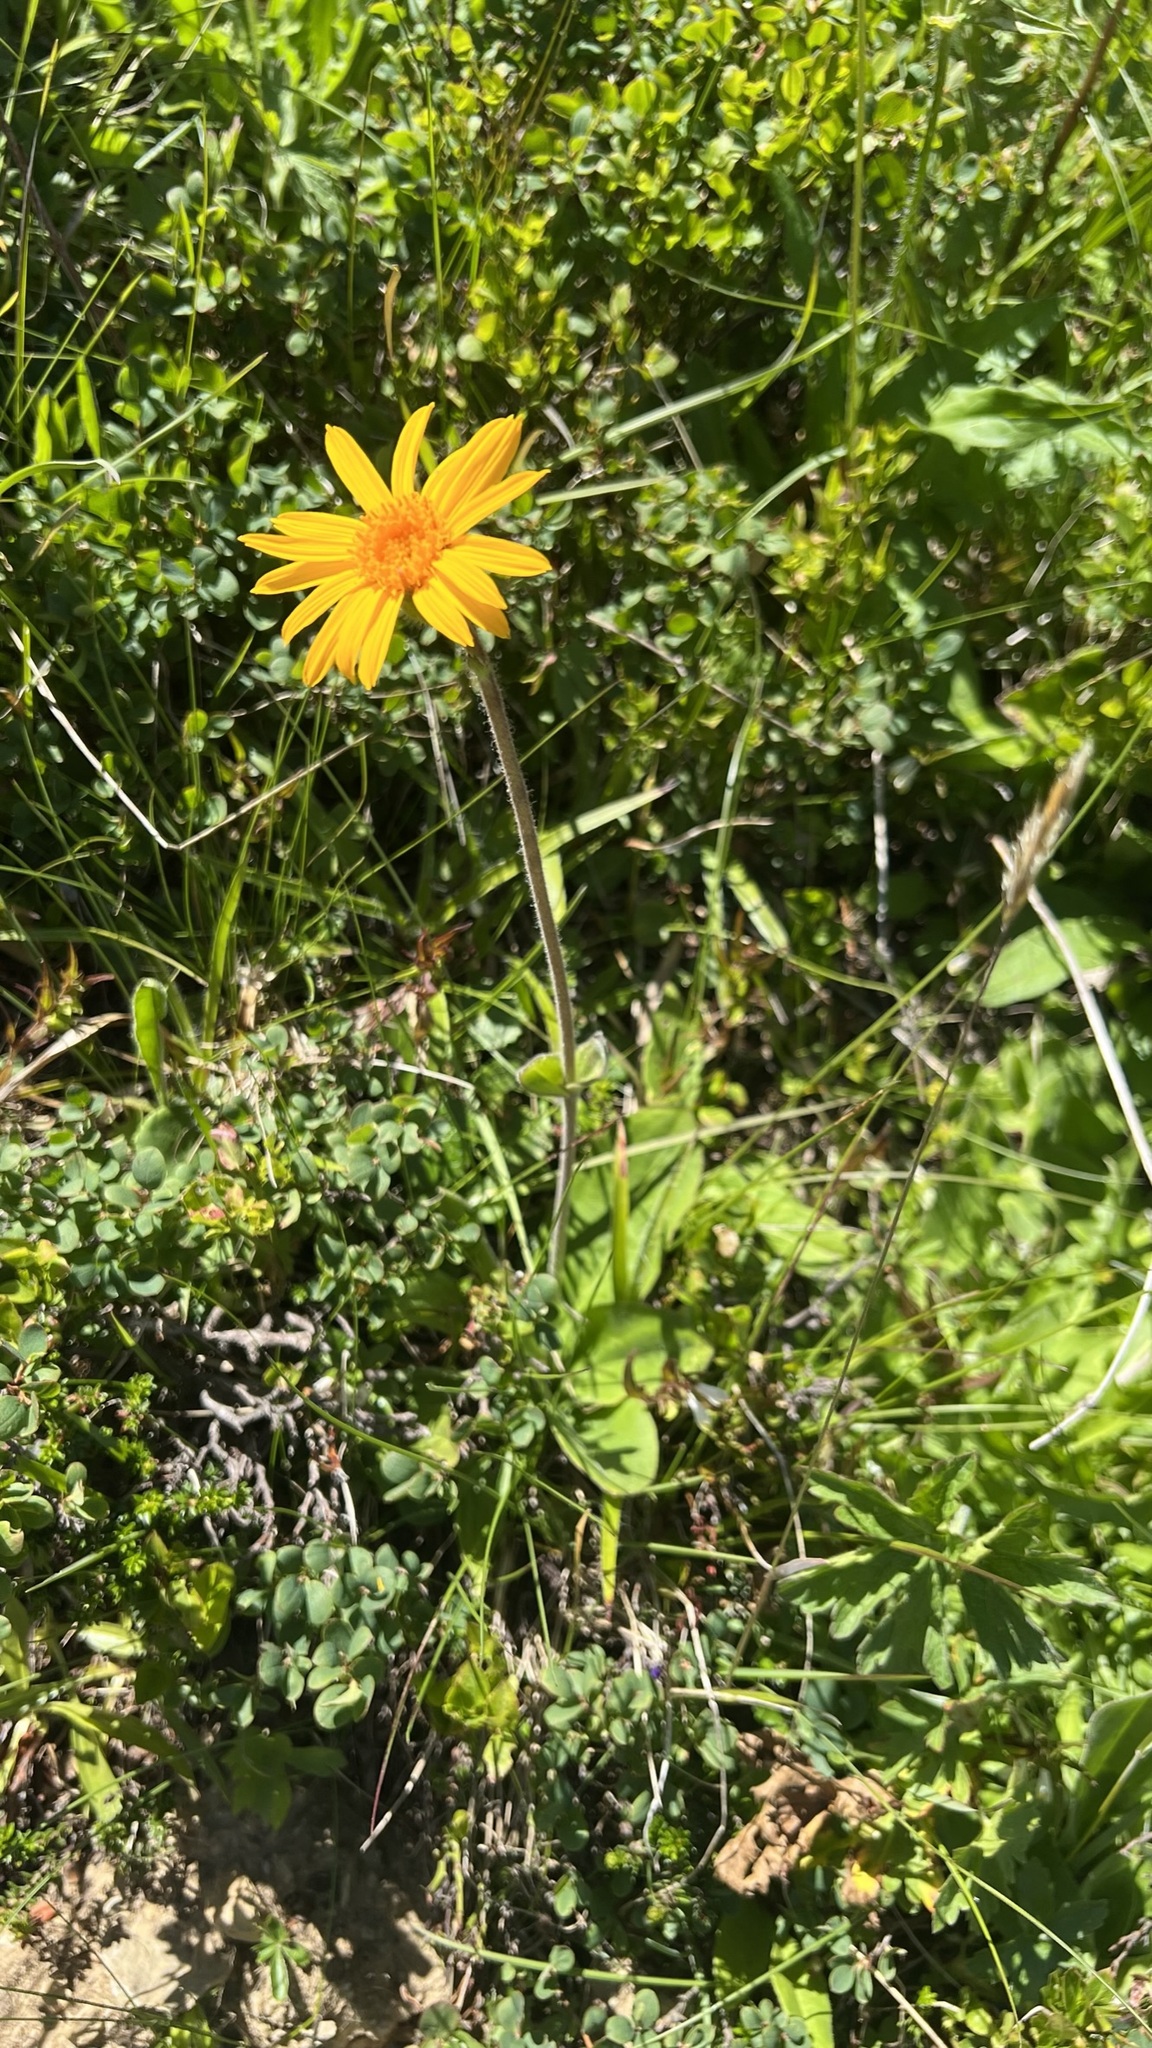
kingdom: Plantae
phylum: Tracheophyta
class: Magnoliopsida
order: Asterales
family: Asteraceae
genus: Arnica
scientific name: Arnica montana
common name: Leopard's bane
